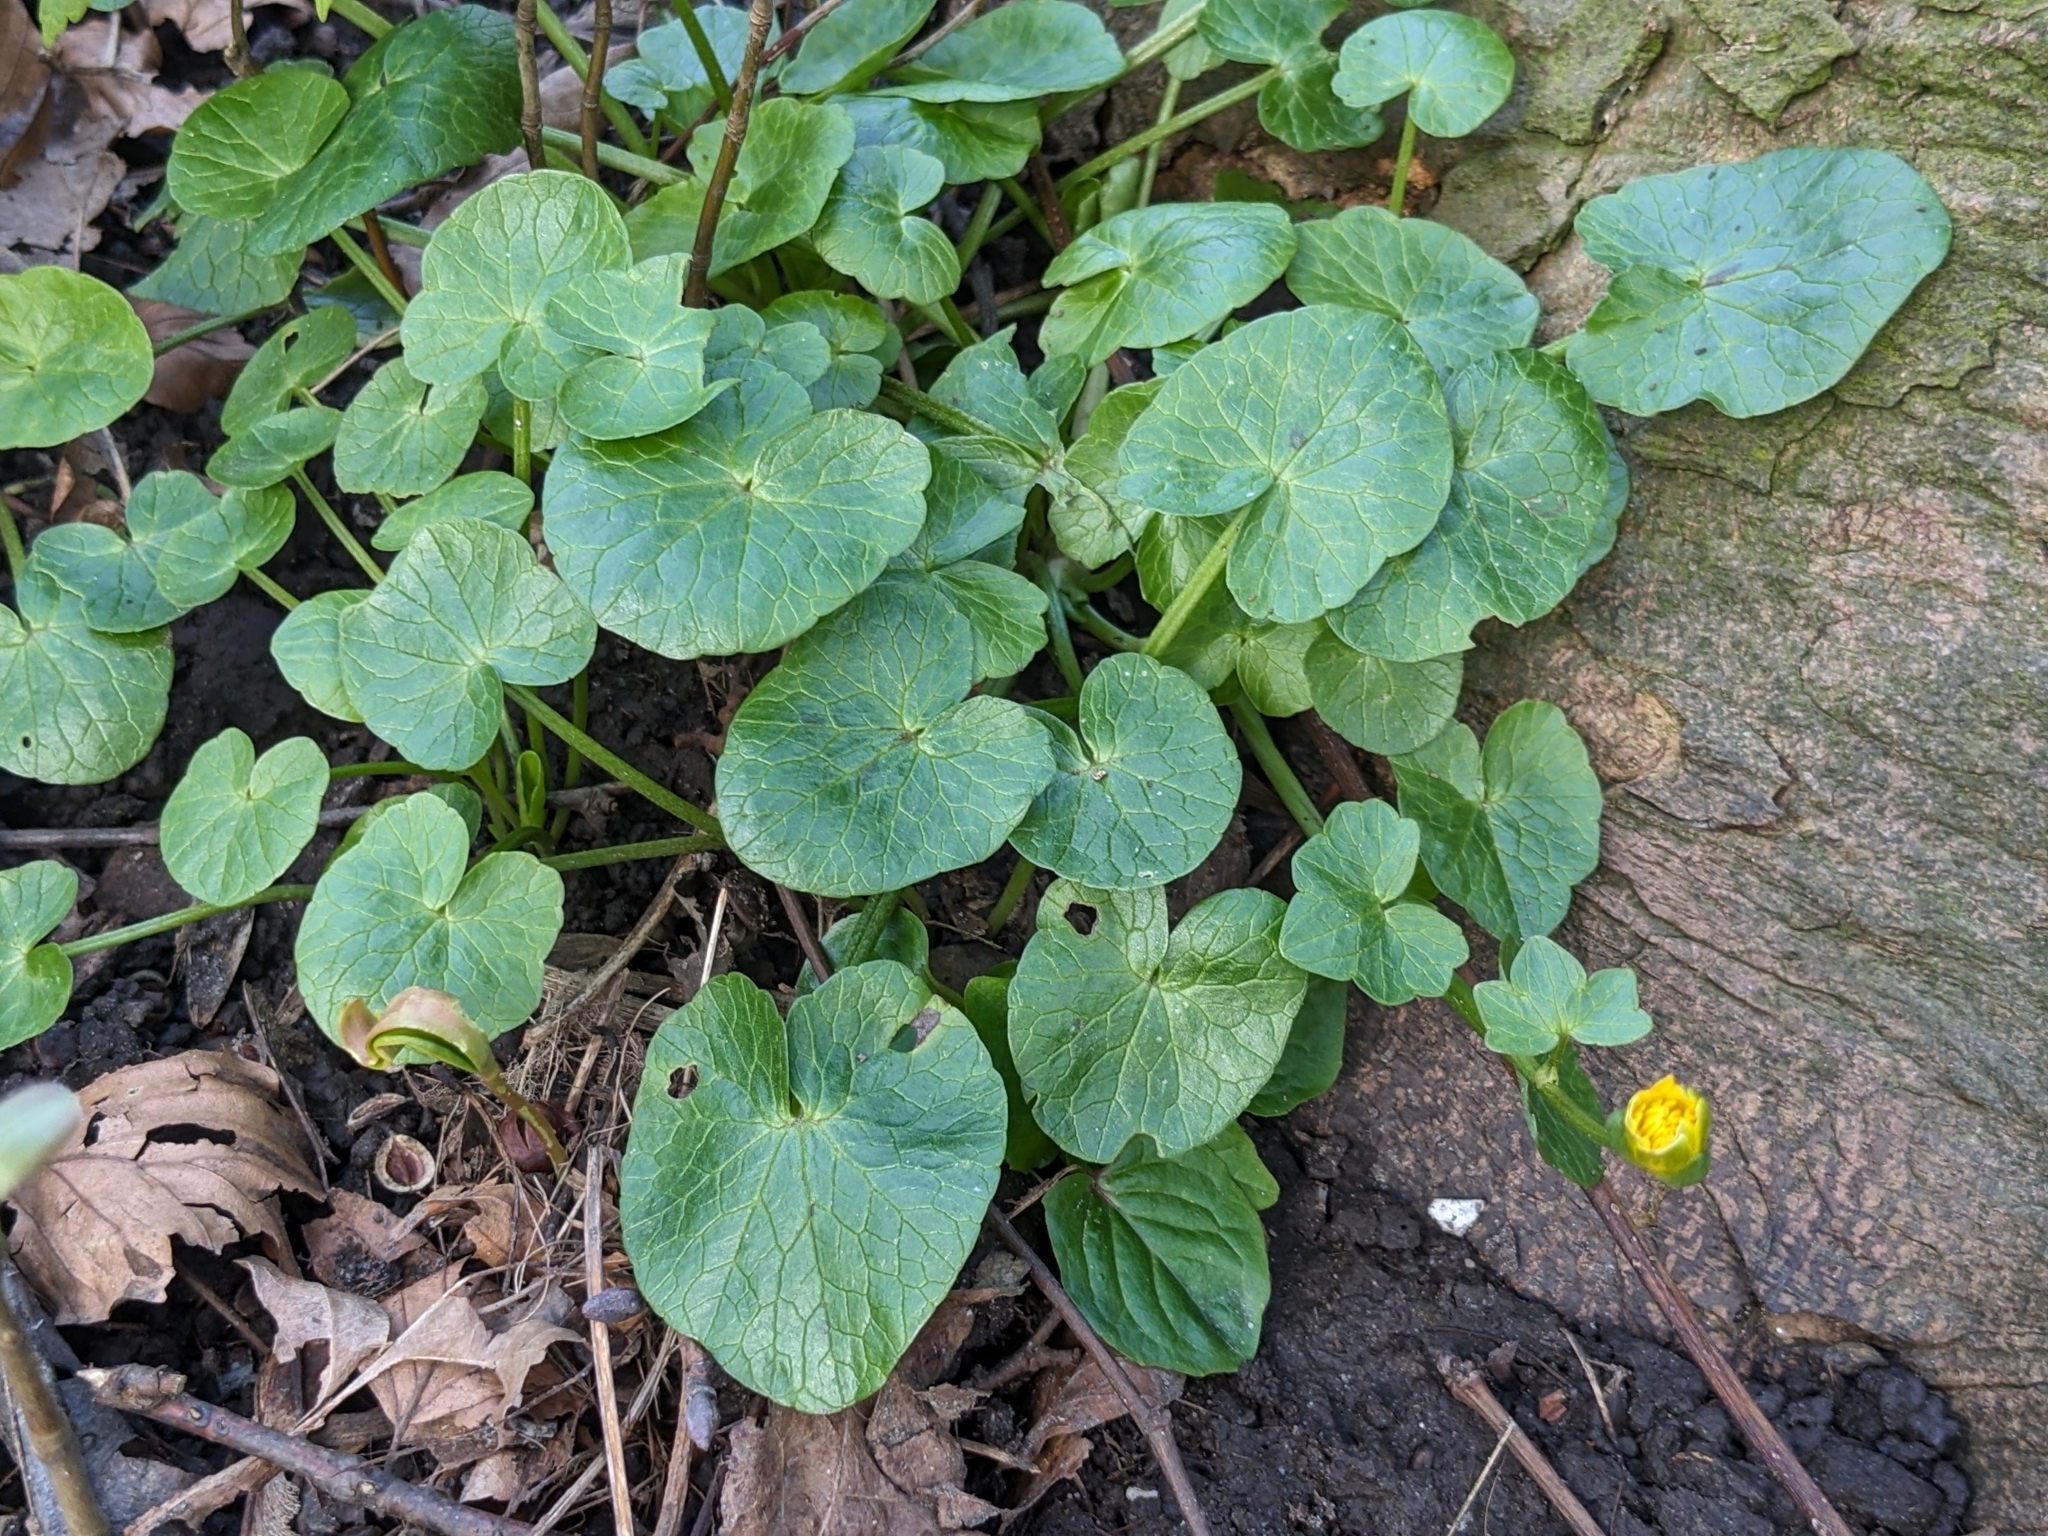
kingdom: Plantae
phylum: Tracheophyta
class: Magnoliopsida
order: Ranunculales
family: Ranunculaceae
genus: Ficaria
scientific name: Ficaria verna
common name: Lesser celandine
